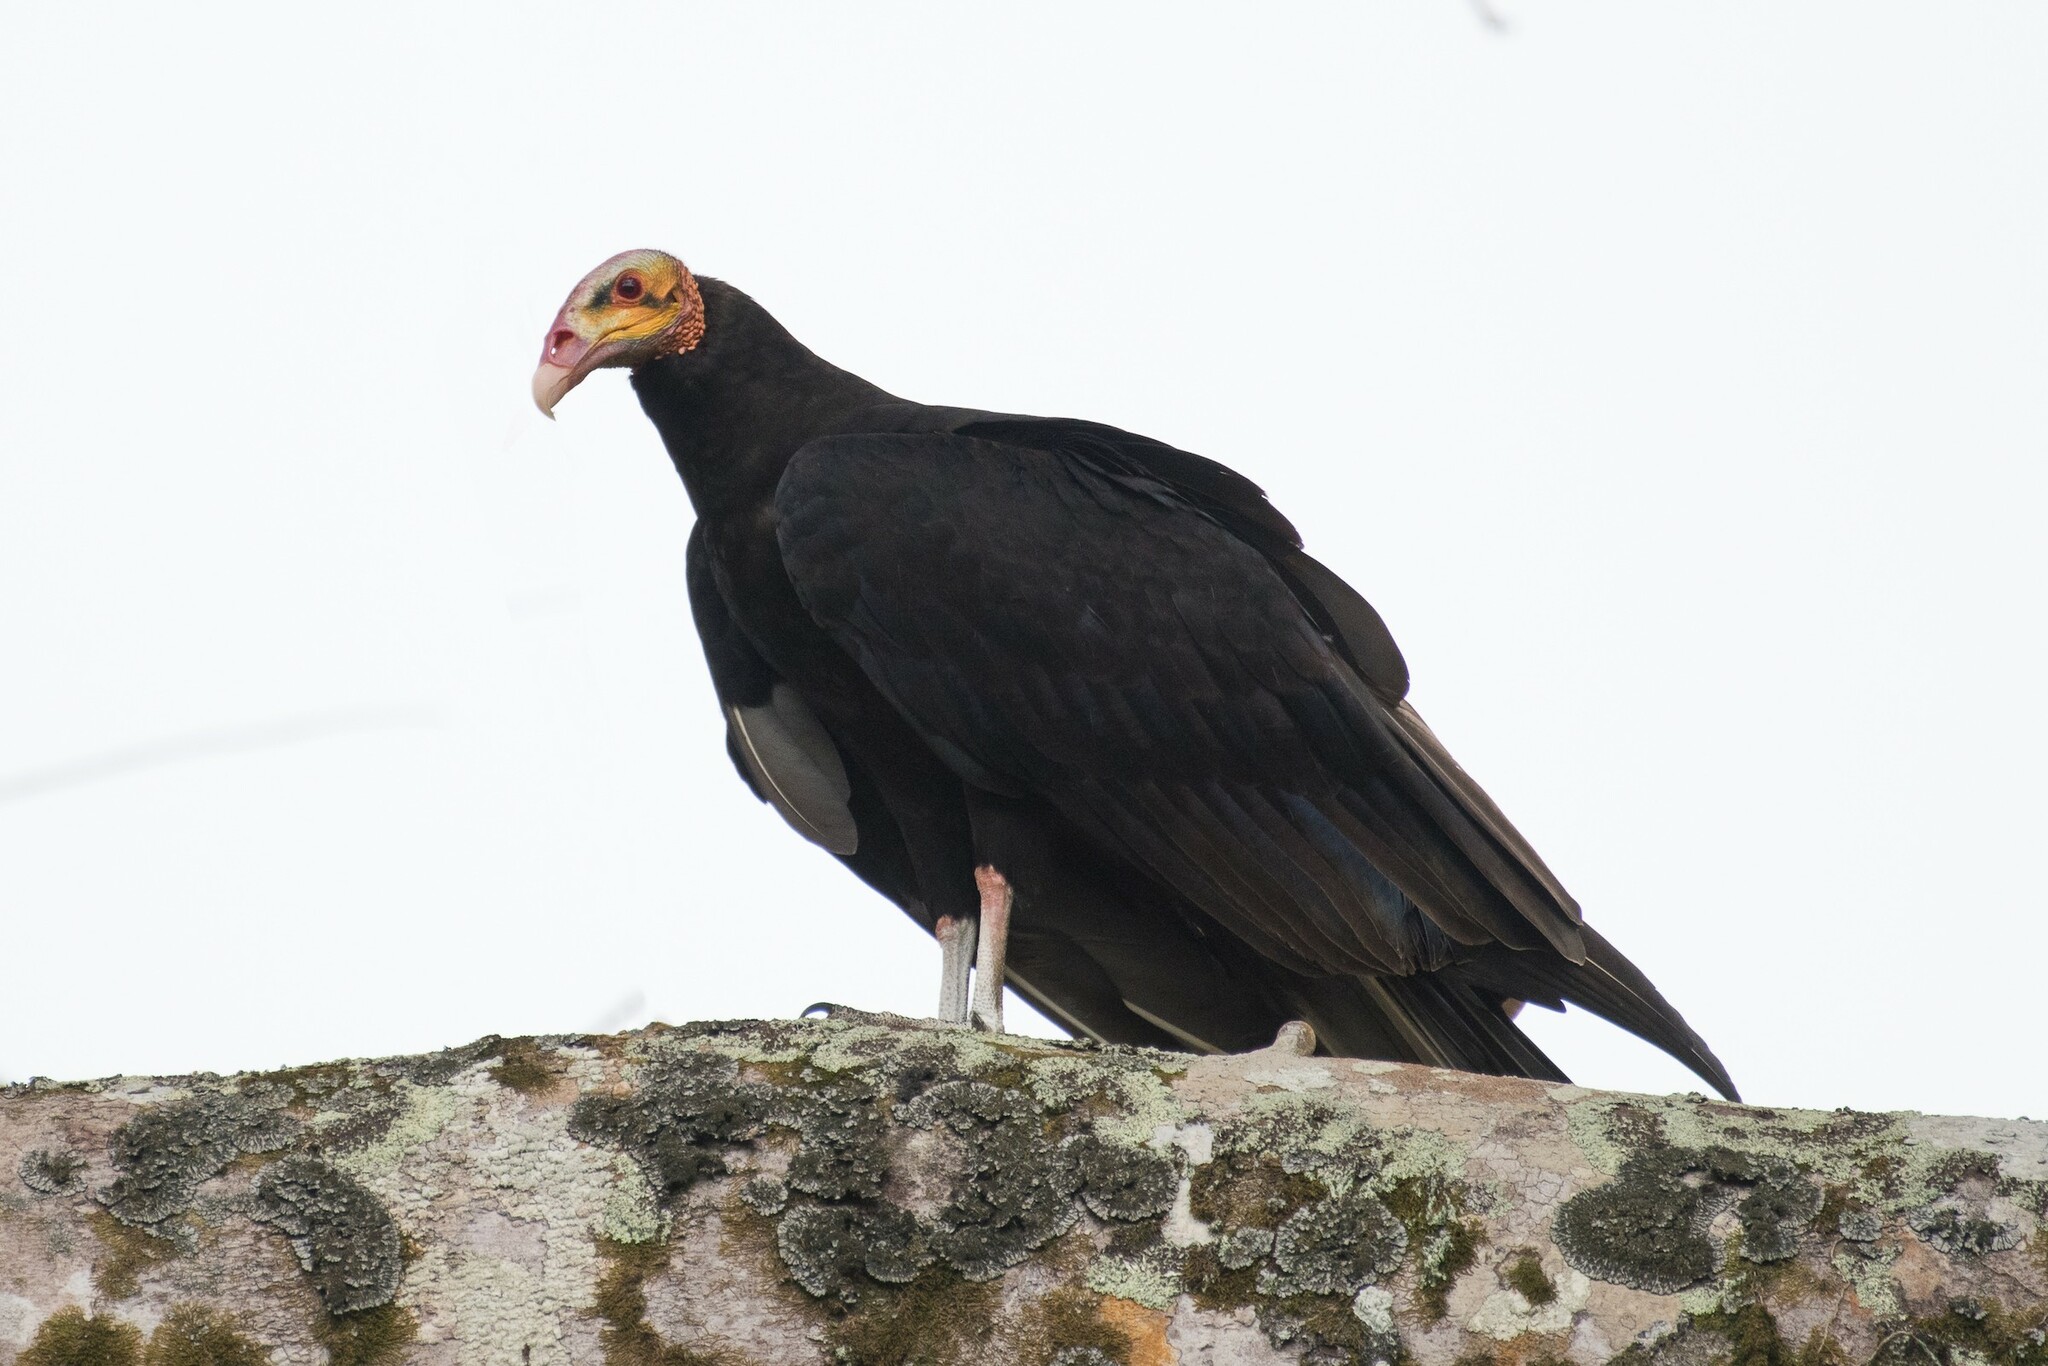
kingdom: Animalia
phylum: Chordata
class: Aves
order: Accipitriformes
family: Cathartidae
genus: Cathartes
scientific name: Cathartes burrovianus
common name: Lesser yellow-headed vulture
